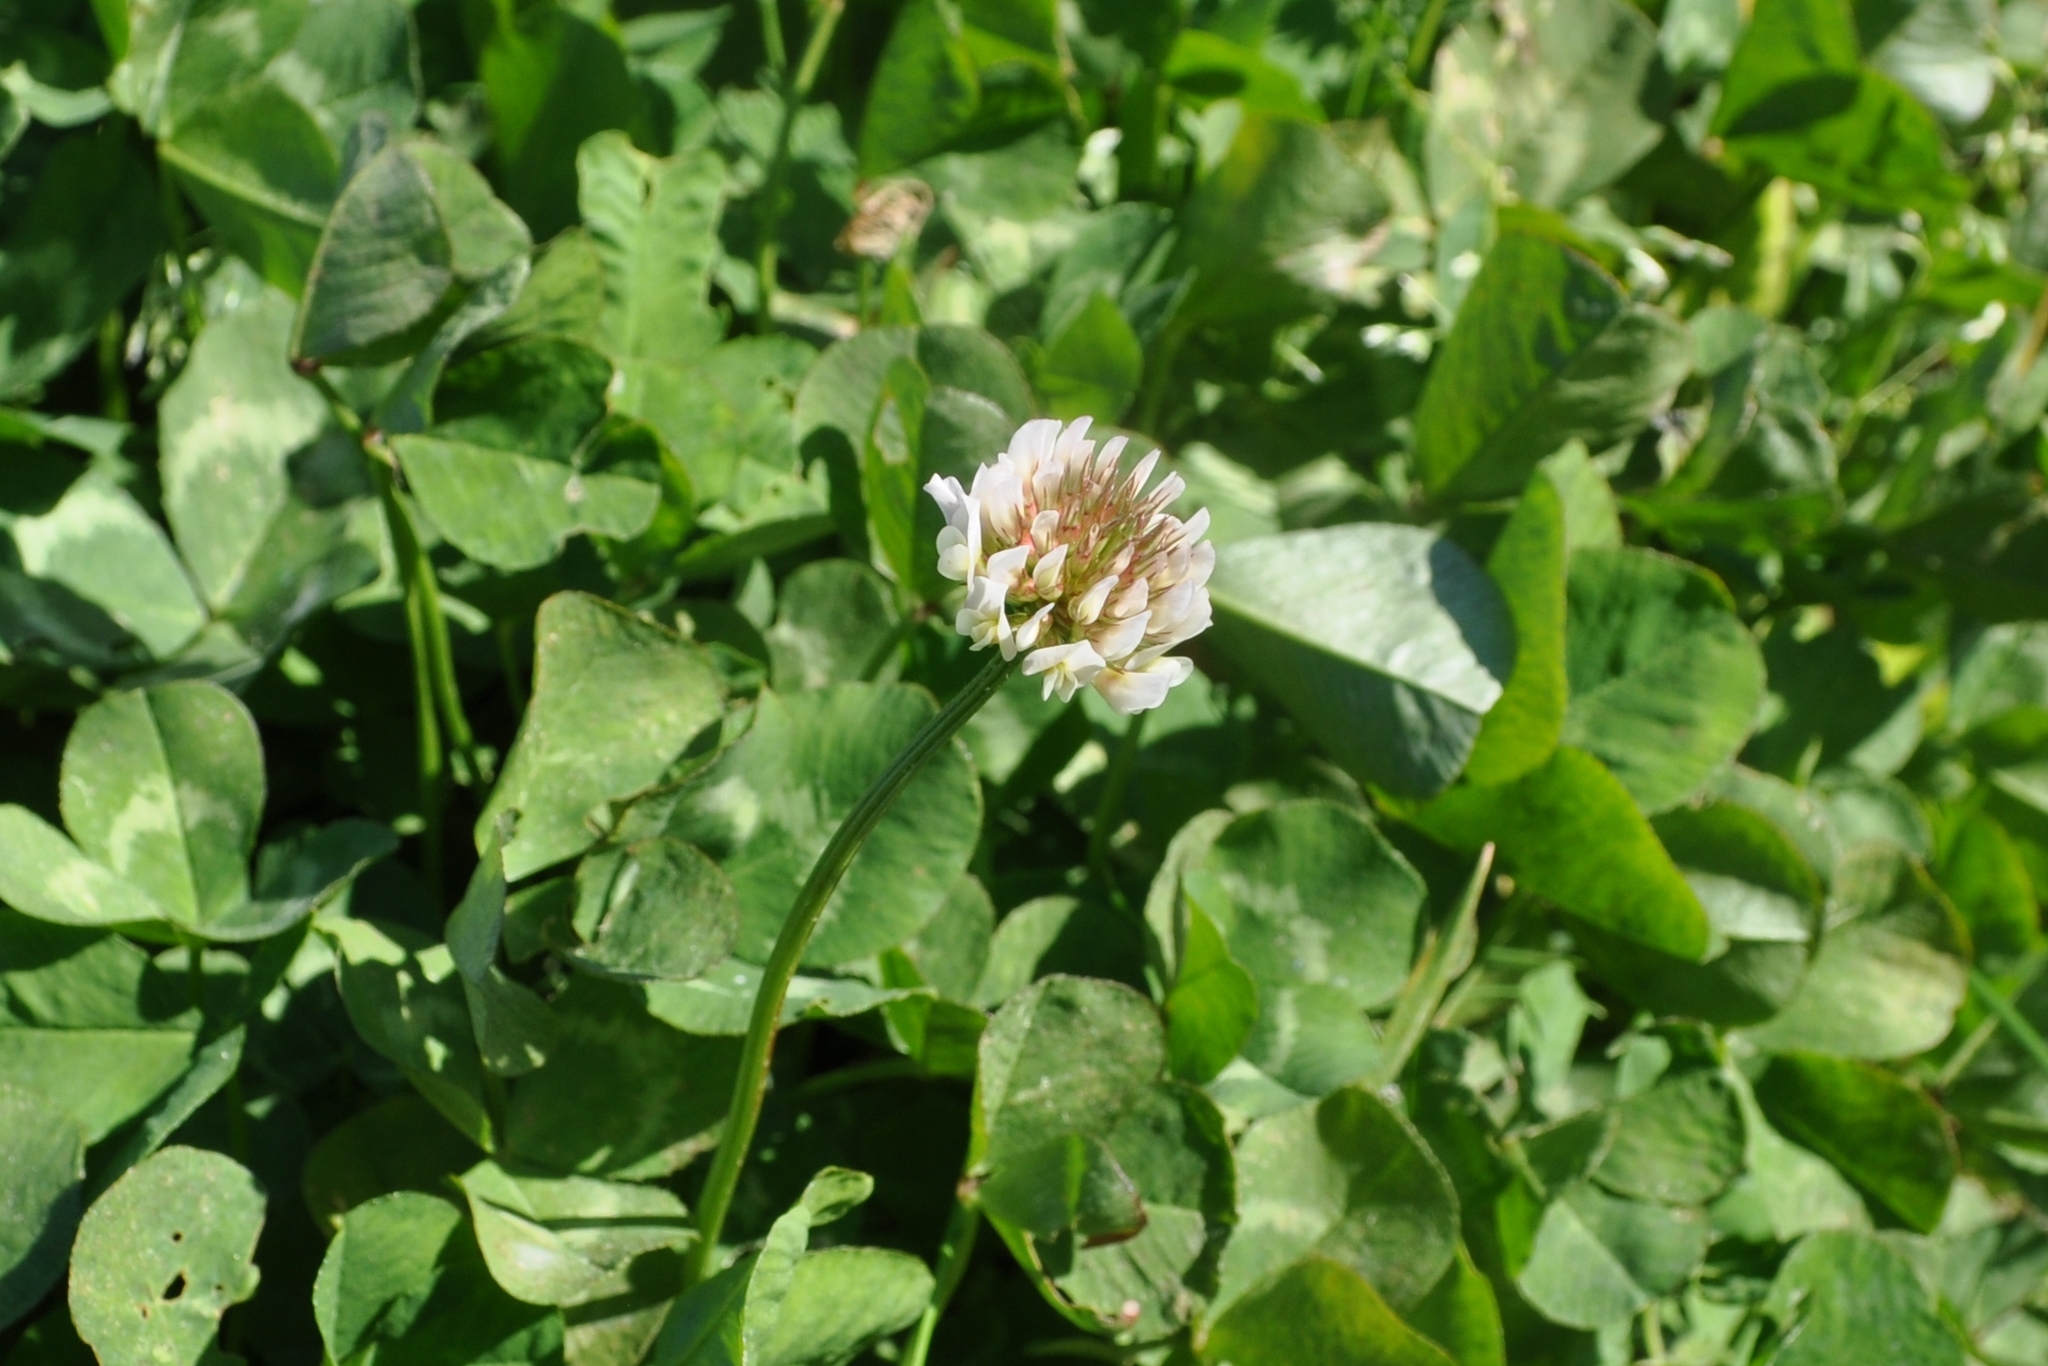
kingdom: Plantae
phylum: Tracheophyta
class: Magnoliopsida
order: Fabales
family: Fabaceae
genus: Trifolium
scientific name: Trifolium repens
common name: White clover
